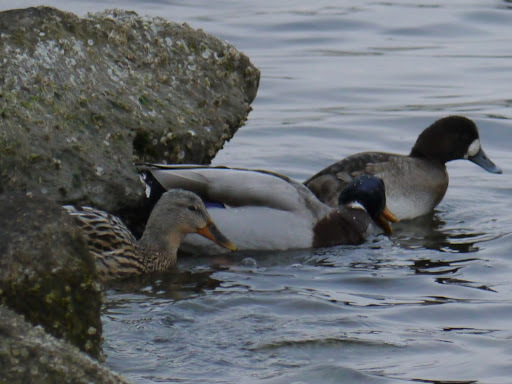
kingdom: Animalia
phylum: Chordata
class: Aves
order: Anseriformes
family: Anatidae
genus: Anas
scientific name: Anas platyrhynchos
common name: Mallard
